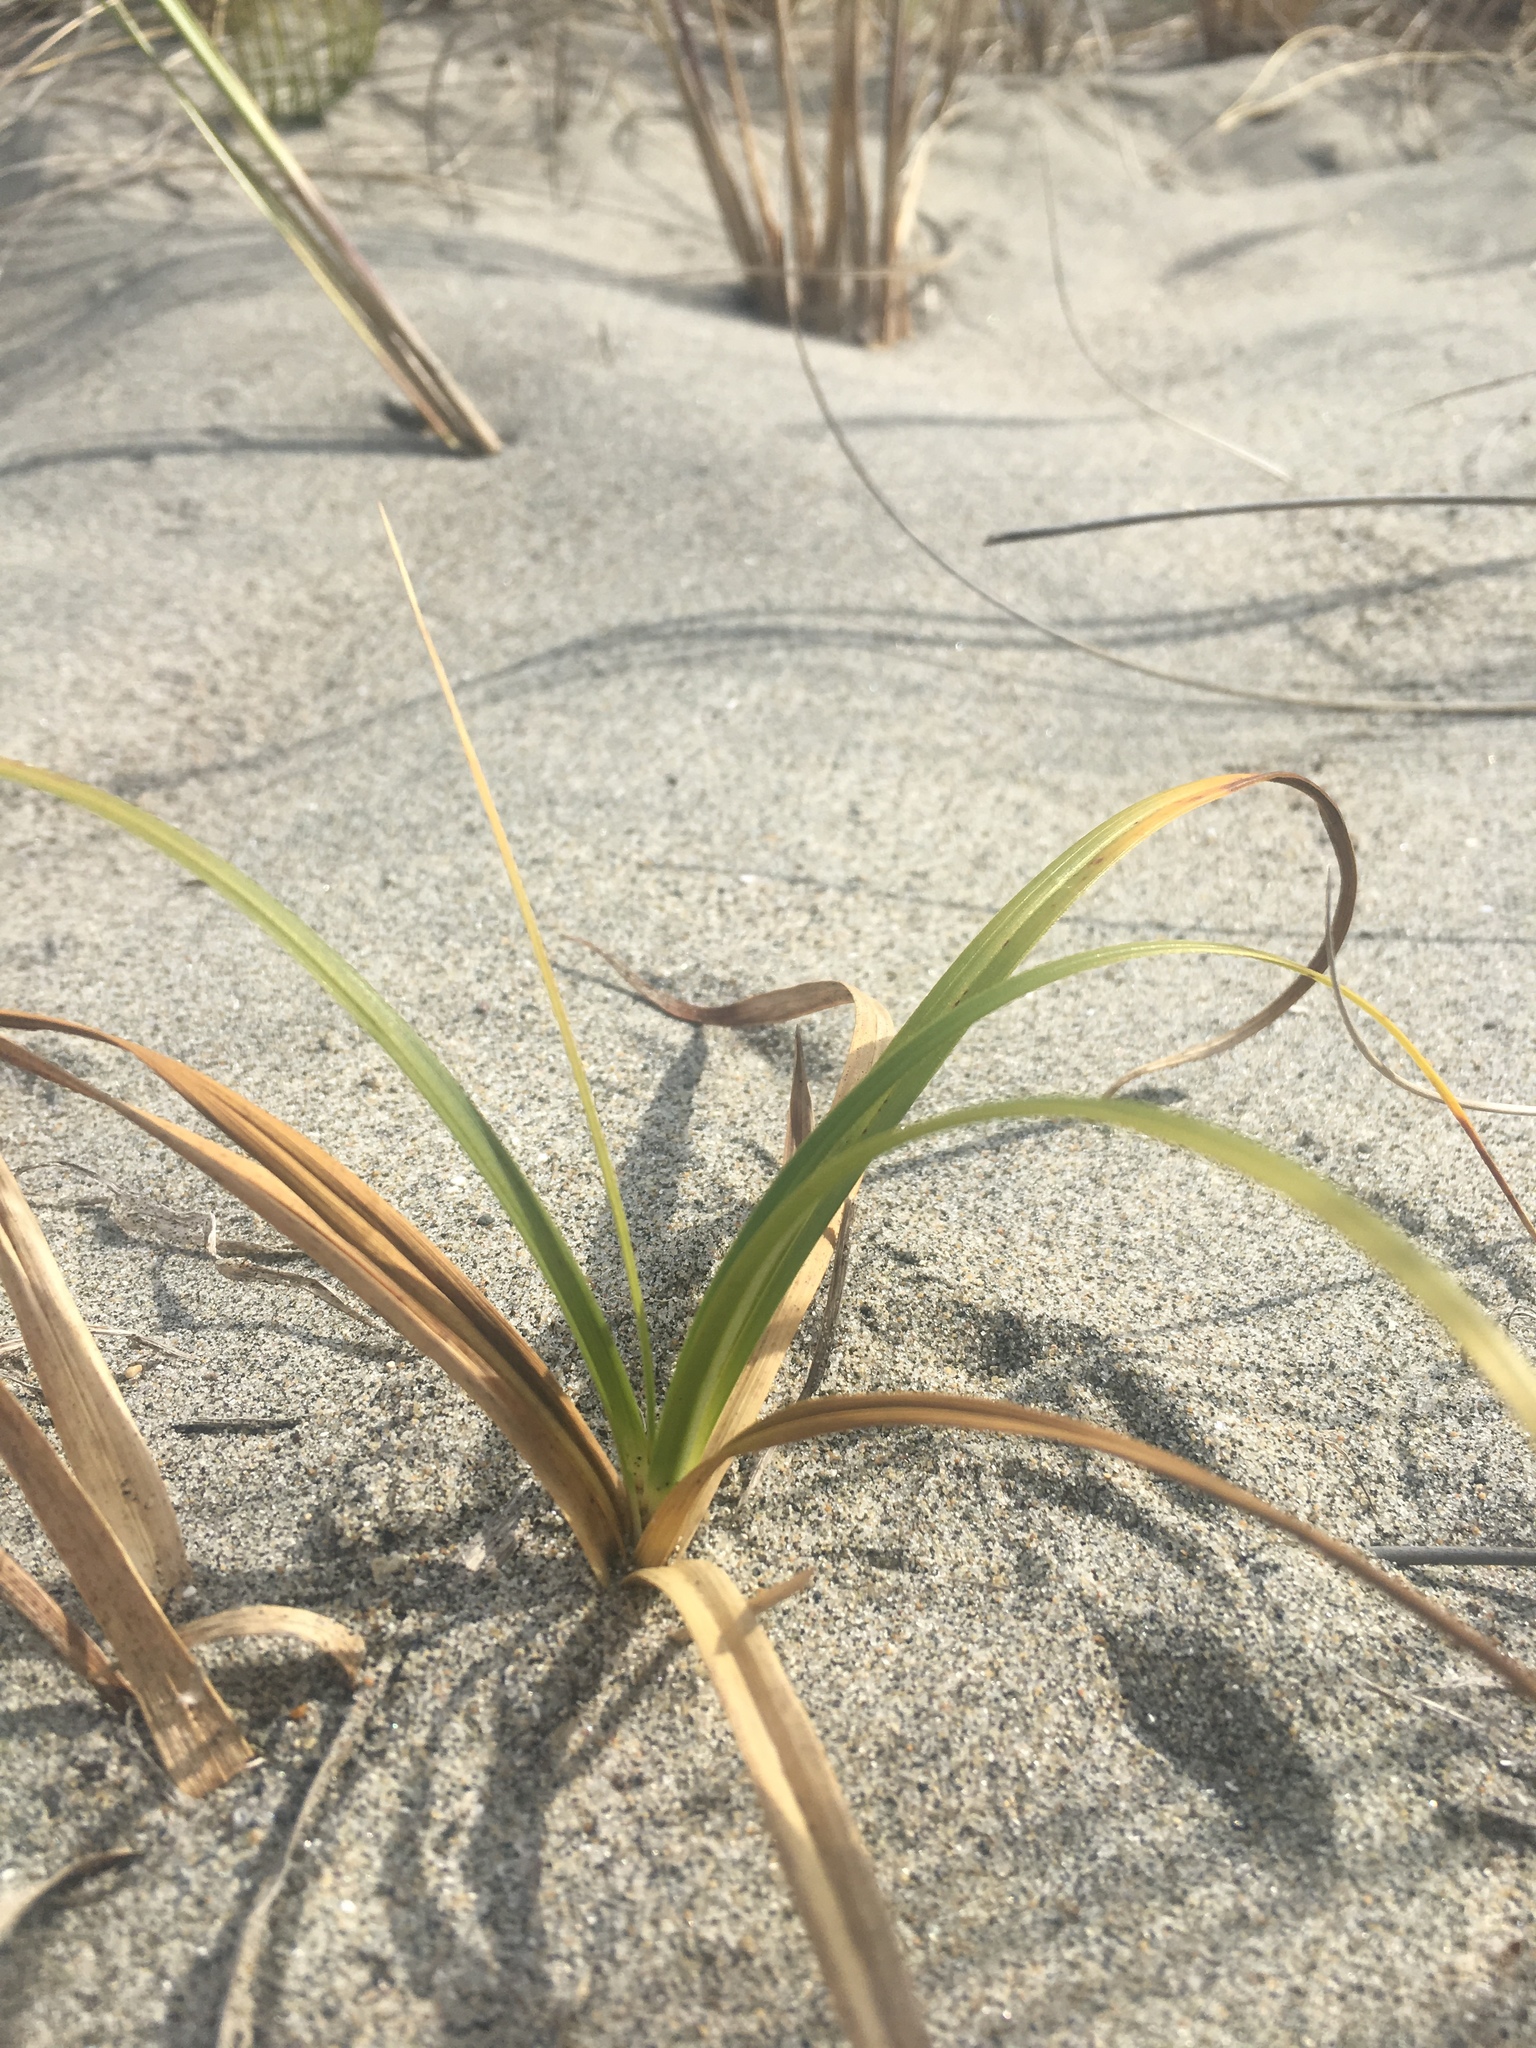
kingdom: Plantae
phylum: Tracheophyta
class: Liliopsida
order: Poales
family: Cyperaceae
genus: Carex
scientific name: Carex macrocephala
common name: Large-head sedge
